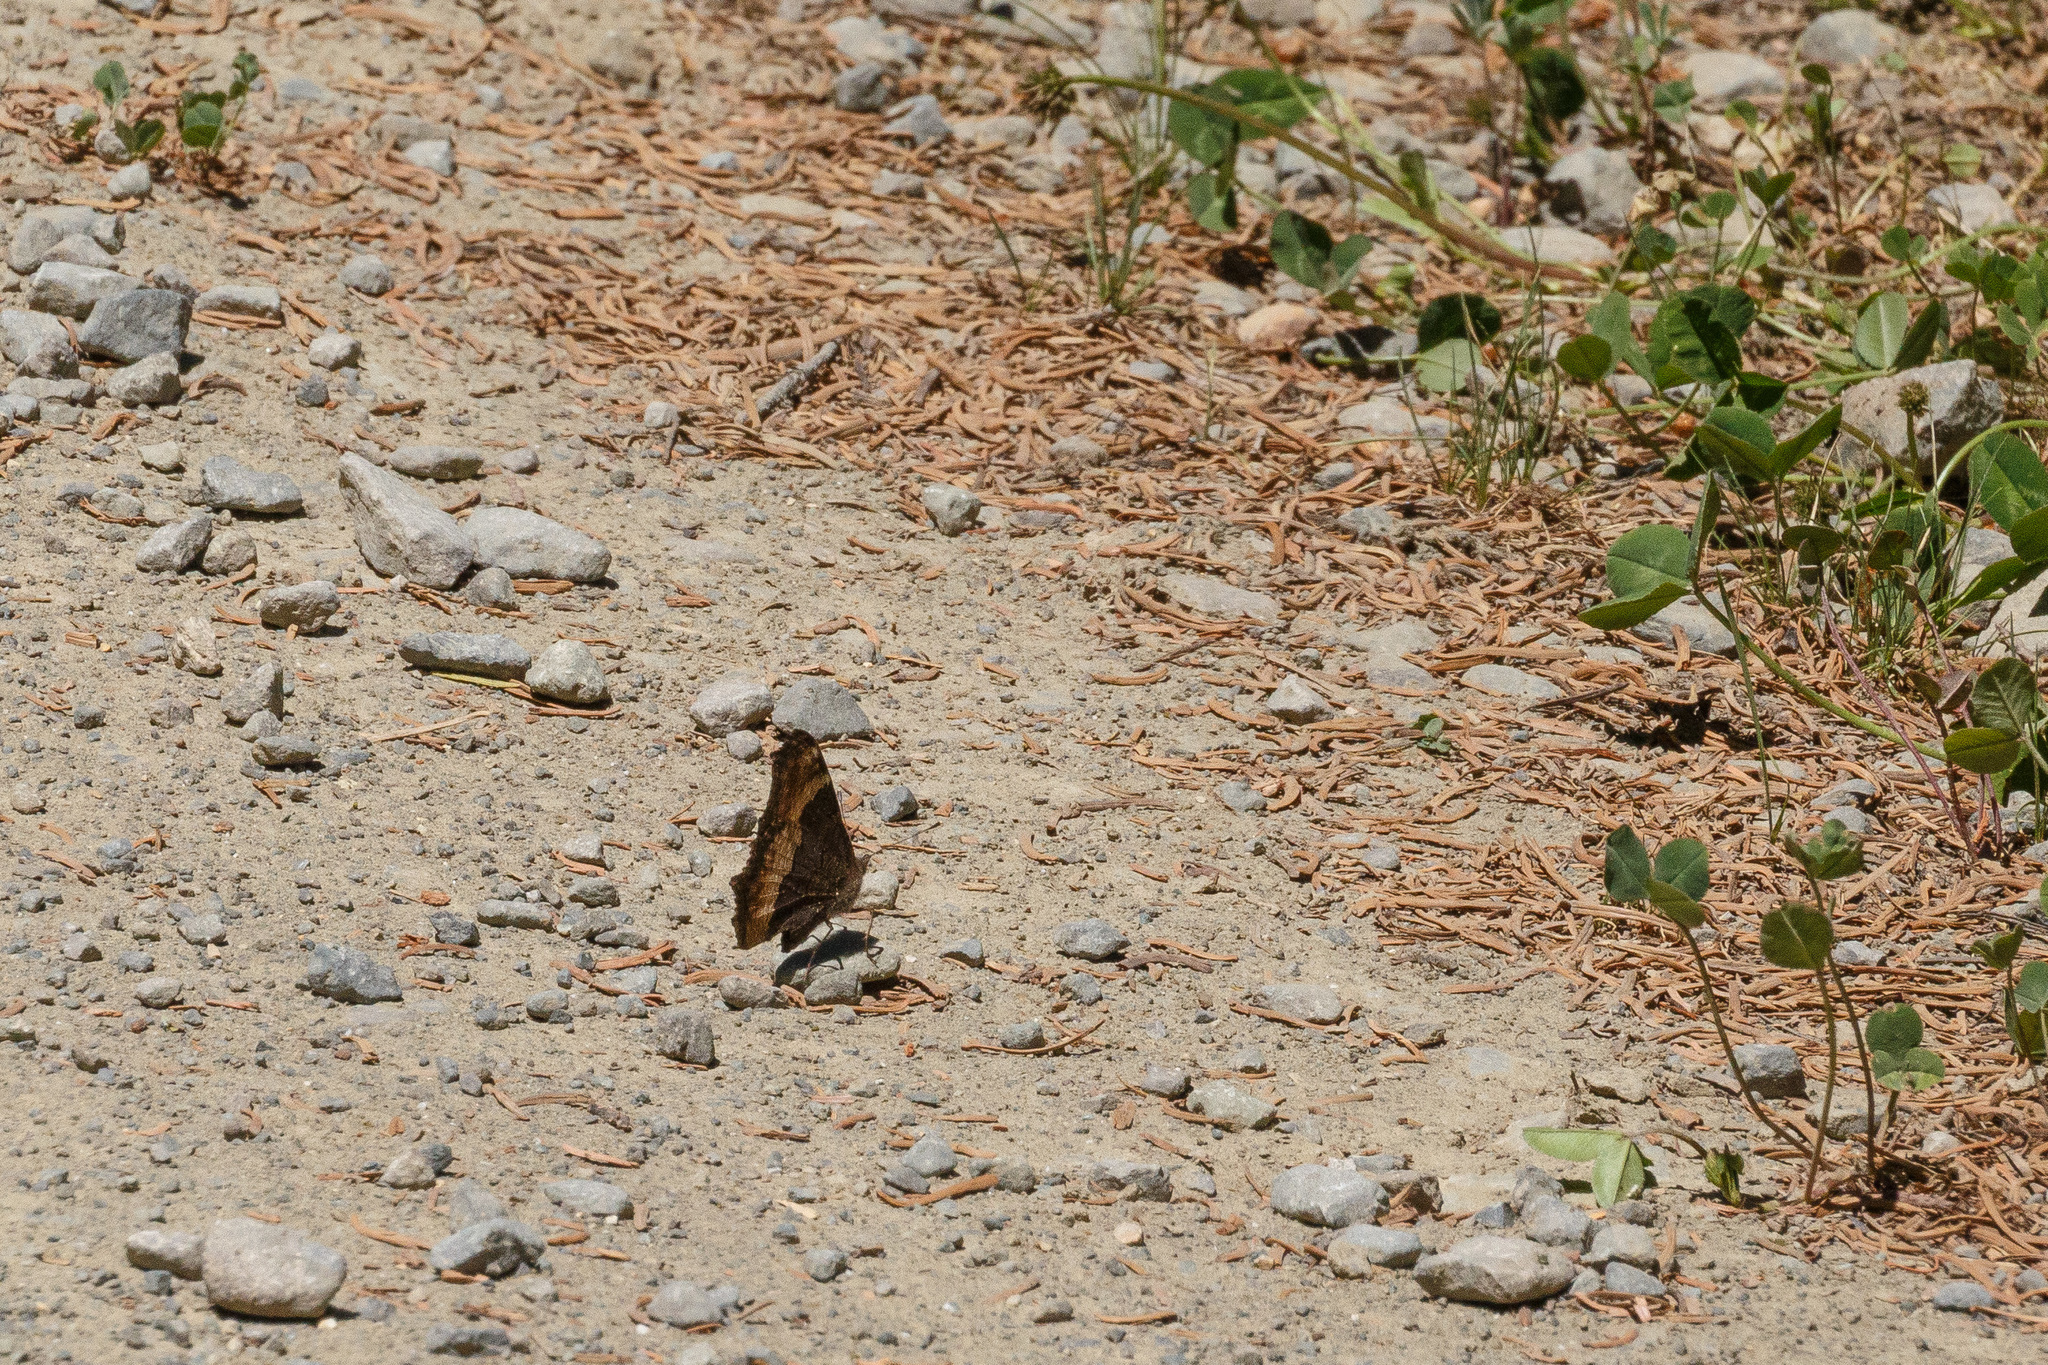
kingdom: Animalia
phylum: Arthropoda
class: Insecta
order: Lepidoptera
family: Nymphalidae
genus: Aglais
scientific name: Aglais milberti
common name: Milbert's tortoiseshell
